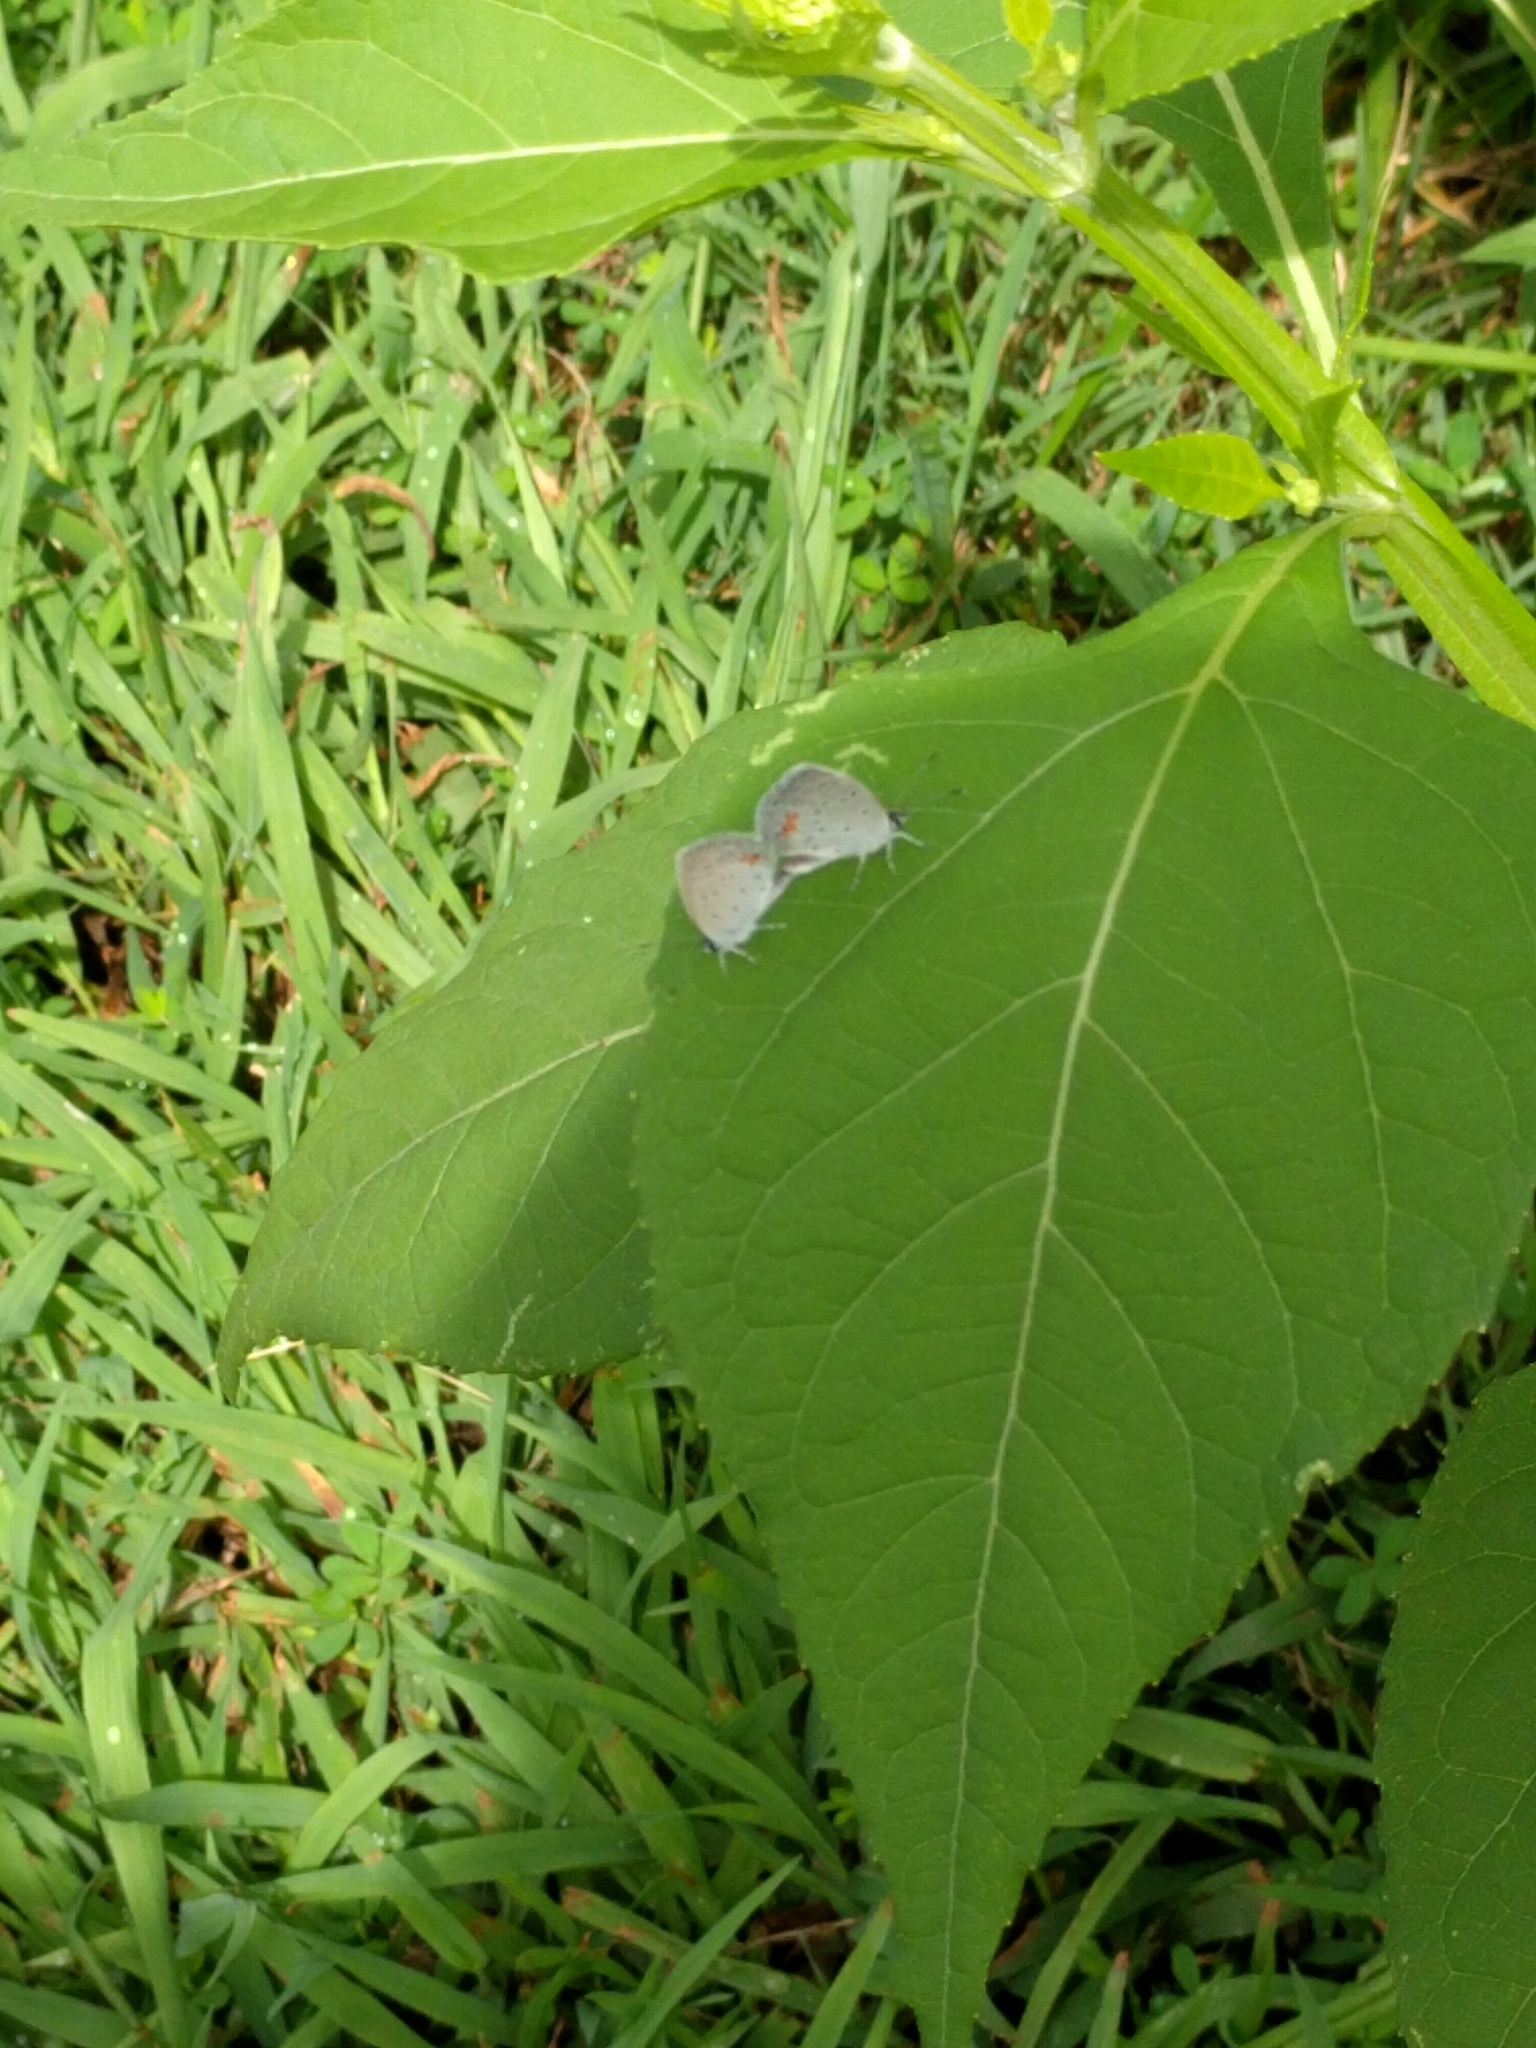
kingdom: Animalia
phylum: Arthropoda
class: Insecta
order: Lepidoptera
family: Lycaenidae
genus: Elkalyce
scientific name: Elkalyce comyntas
